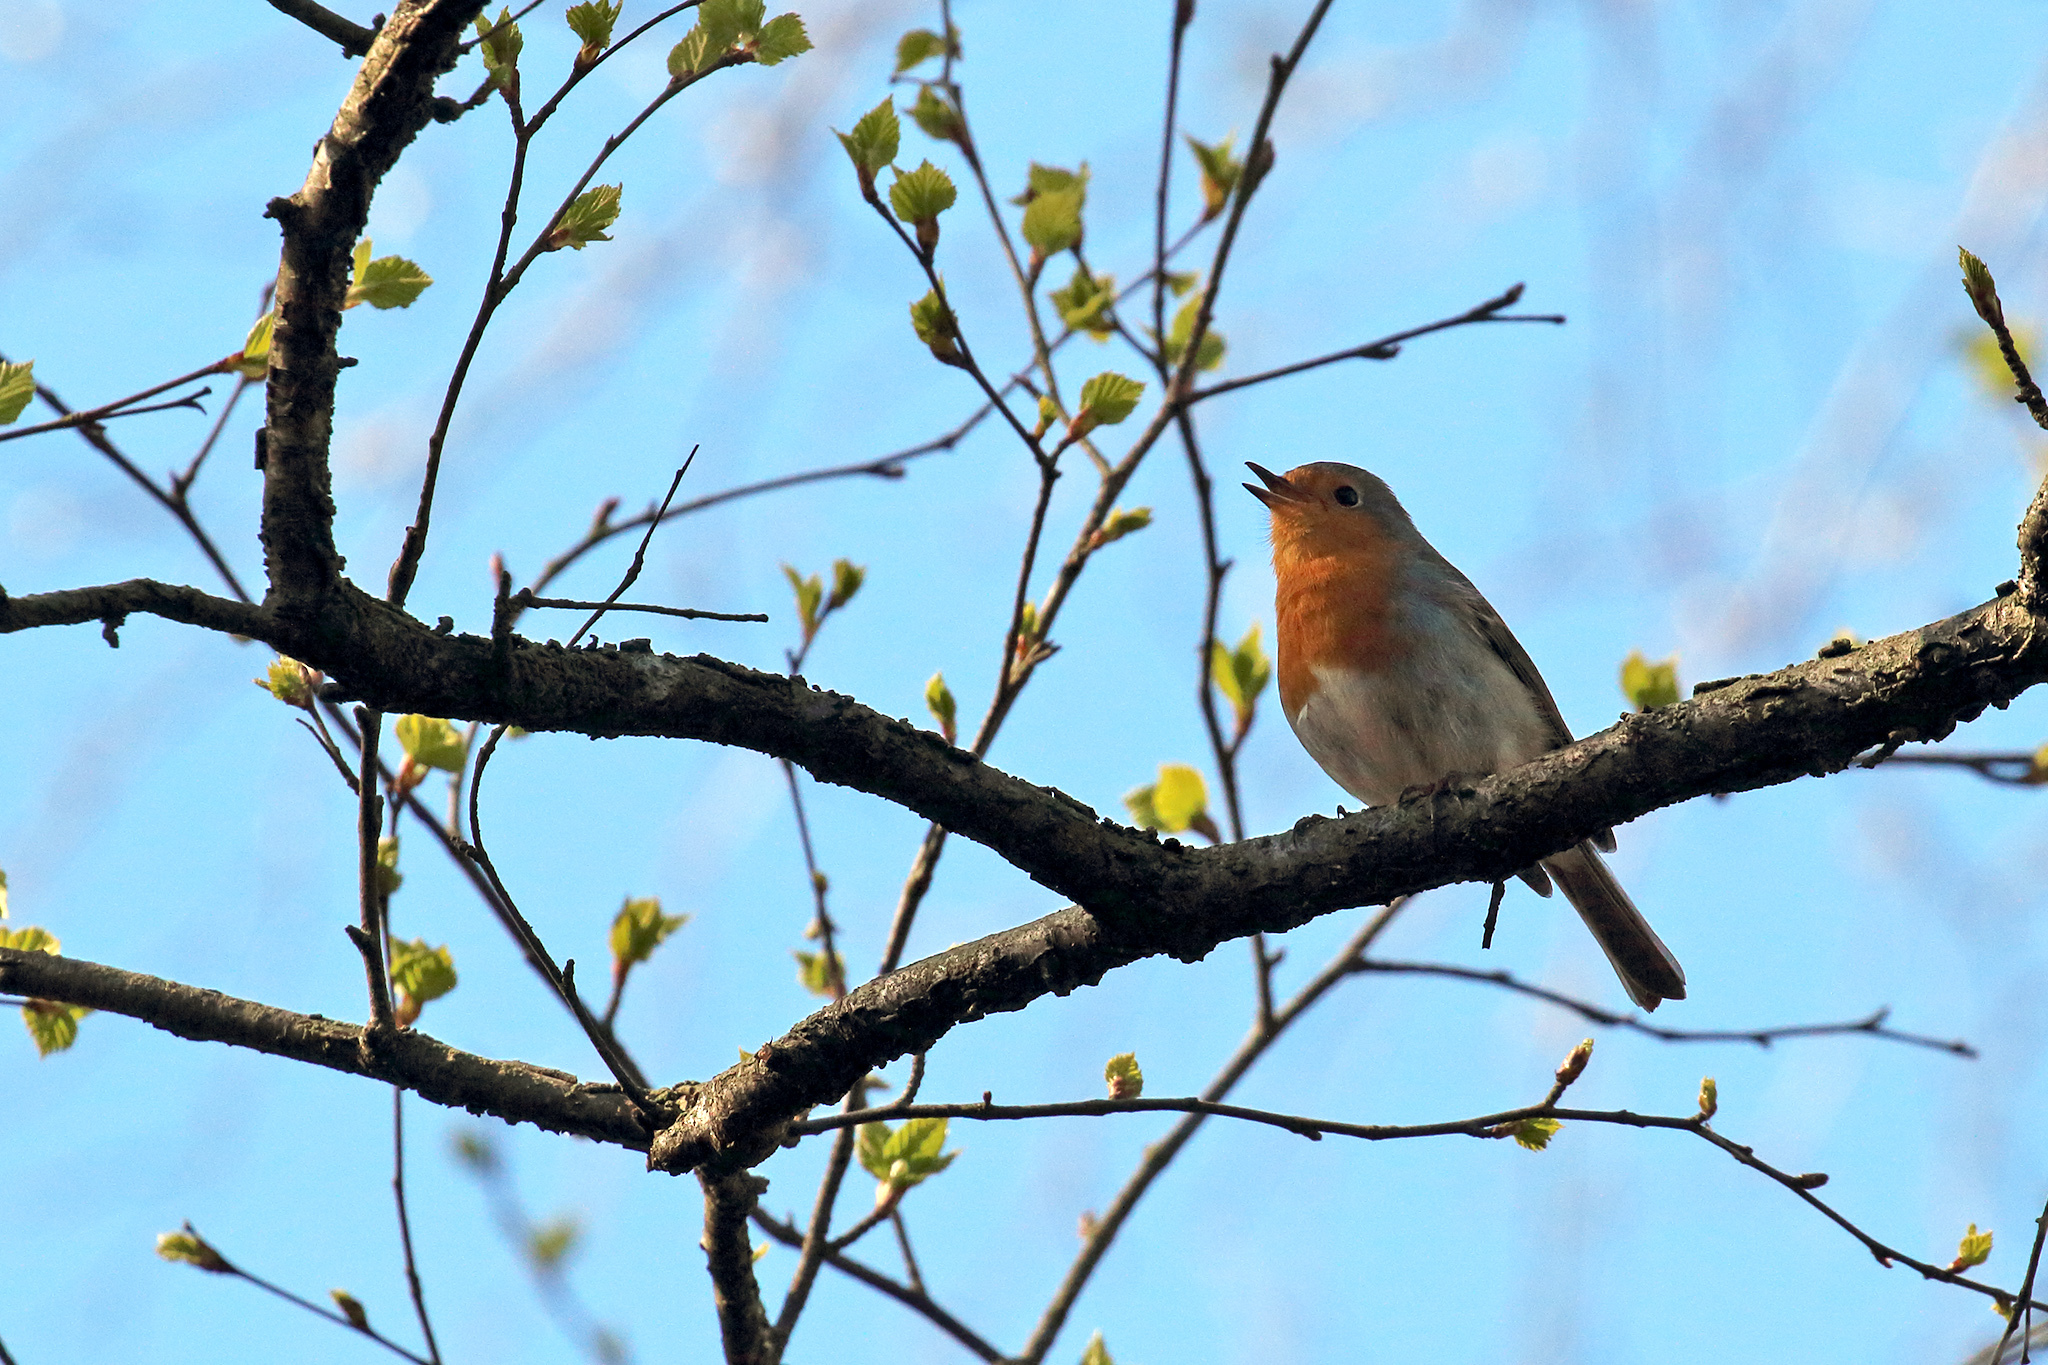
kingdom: Animalia
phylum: Chordata
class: Aves
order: Passeriformes
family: Muscicapidae
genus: Erithacus
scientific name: Erithacus rubecula
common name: European robin
